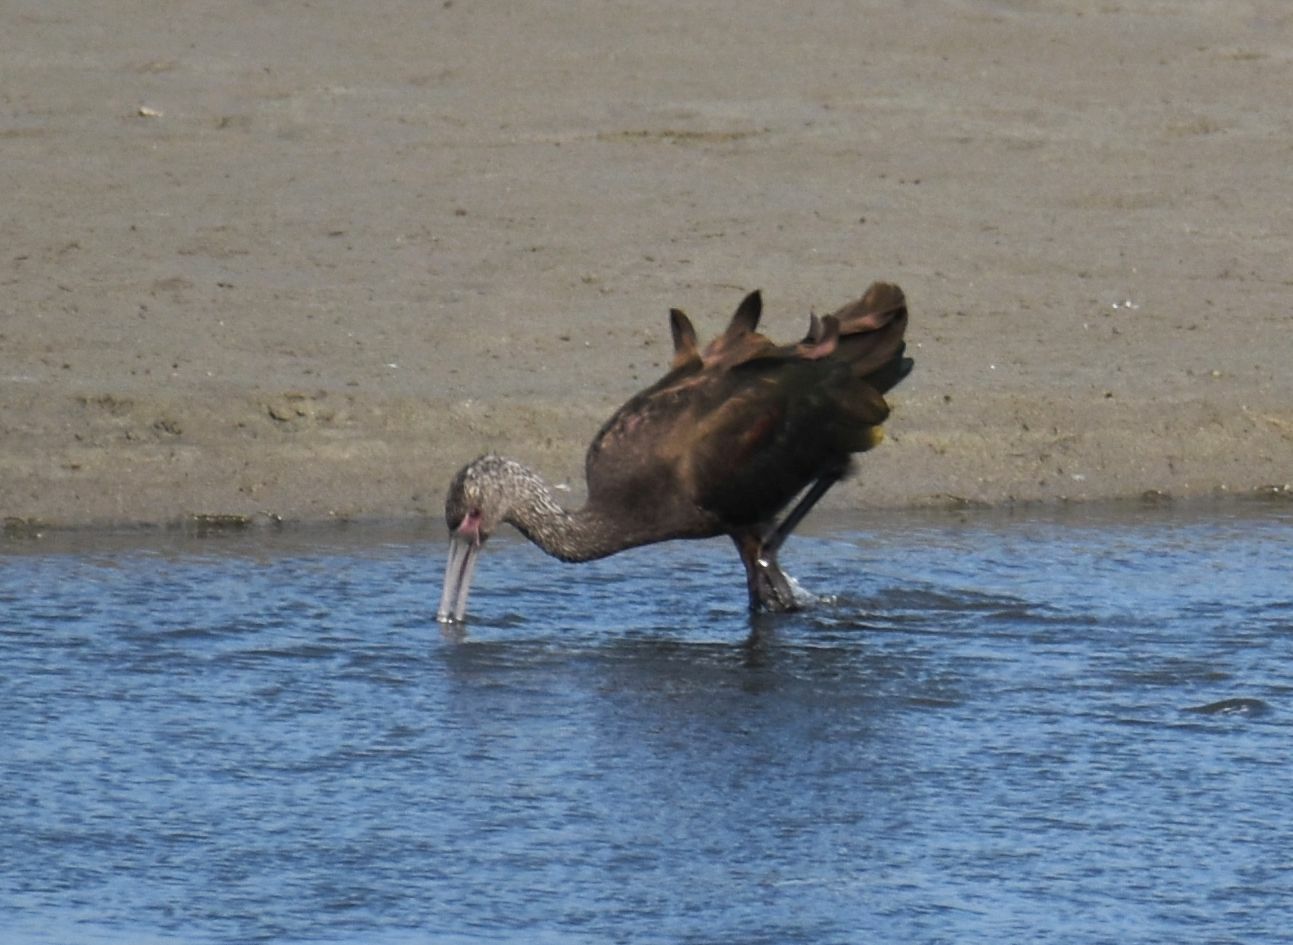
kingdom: Animalia
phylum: Chordata
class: Aves
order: Pelecaniformes
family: Threskiornithidae
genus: Plegadis
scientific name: Plegadis chihi
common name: White-faced ibis
